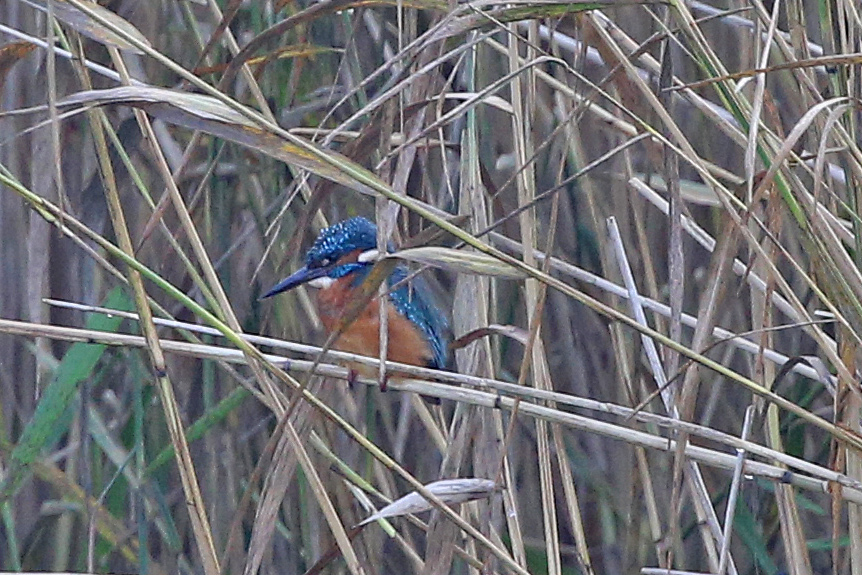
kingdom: Animalia
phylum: Chordata
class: Aves
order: Coraciiformes
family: Alcedinidae
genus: Alcedo
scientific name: Alcedo atthis
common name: Common kingfisher
